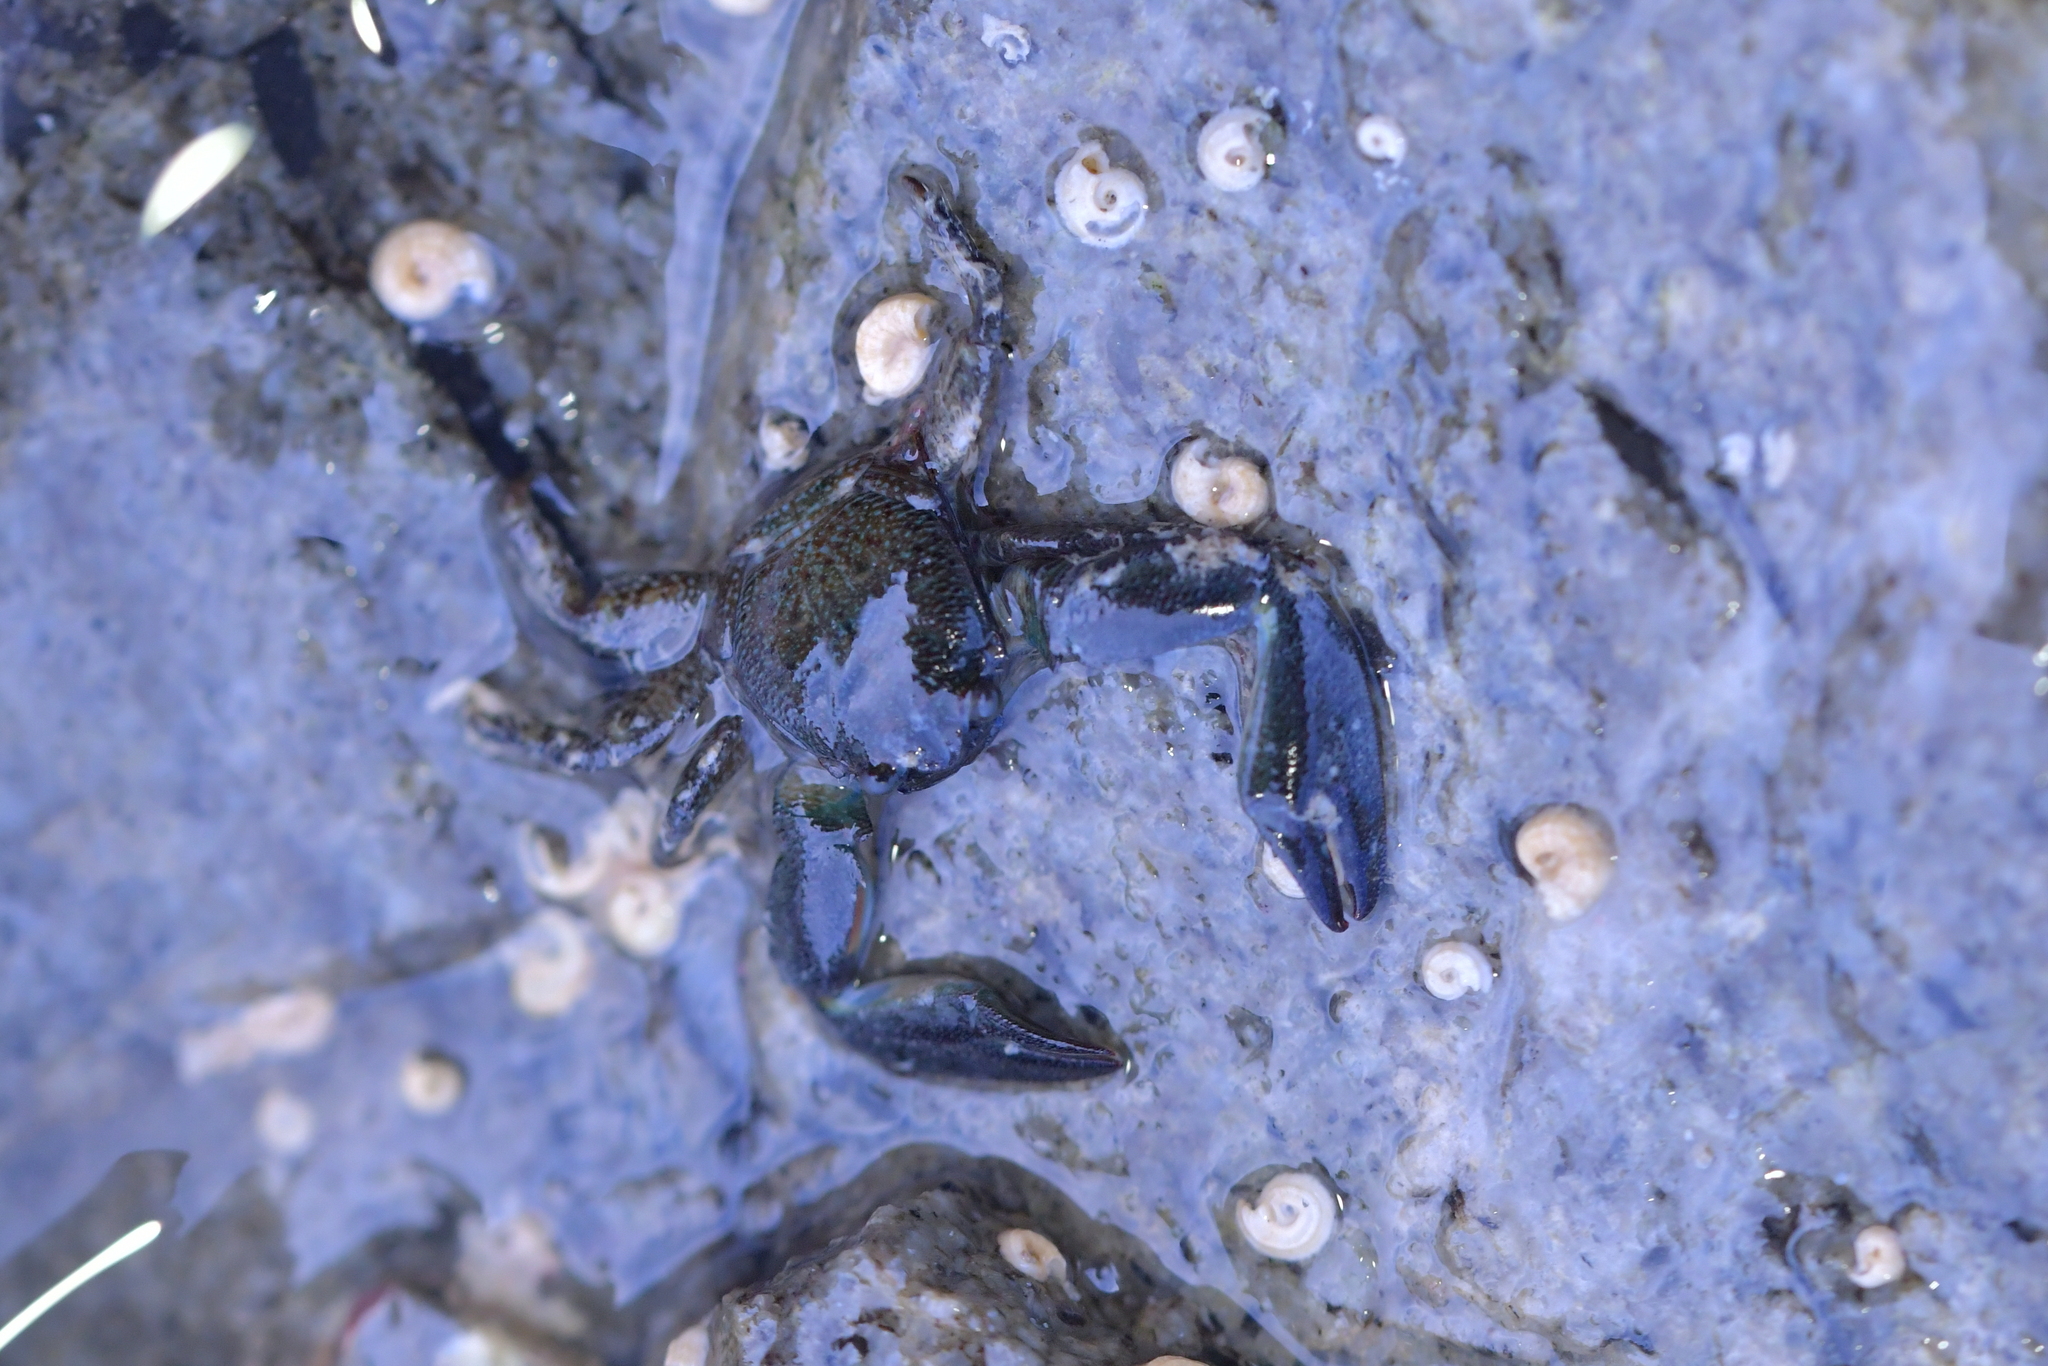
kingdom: Animalia
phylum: Arthropoda
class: Malacostraca
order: Decapoda
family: Porcellanidae
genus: Petrolisthes
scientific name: Petrolisthes elongatus
